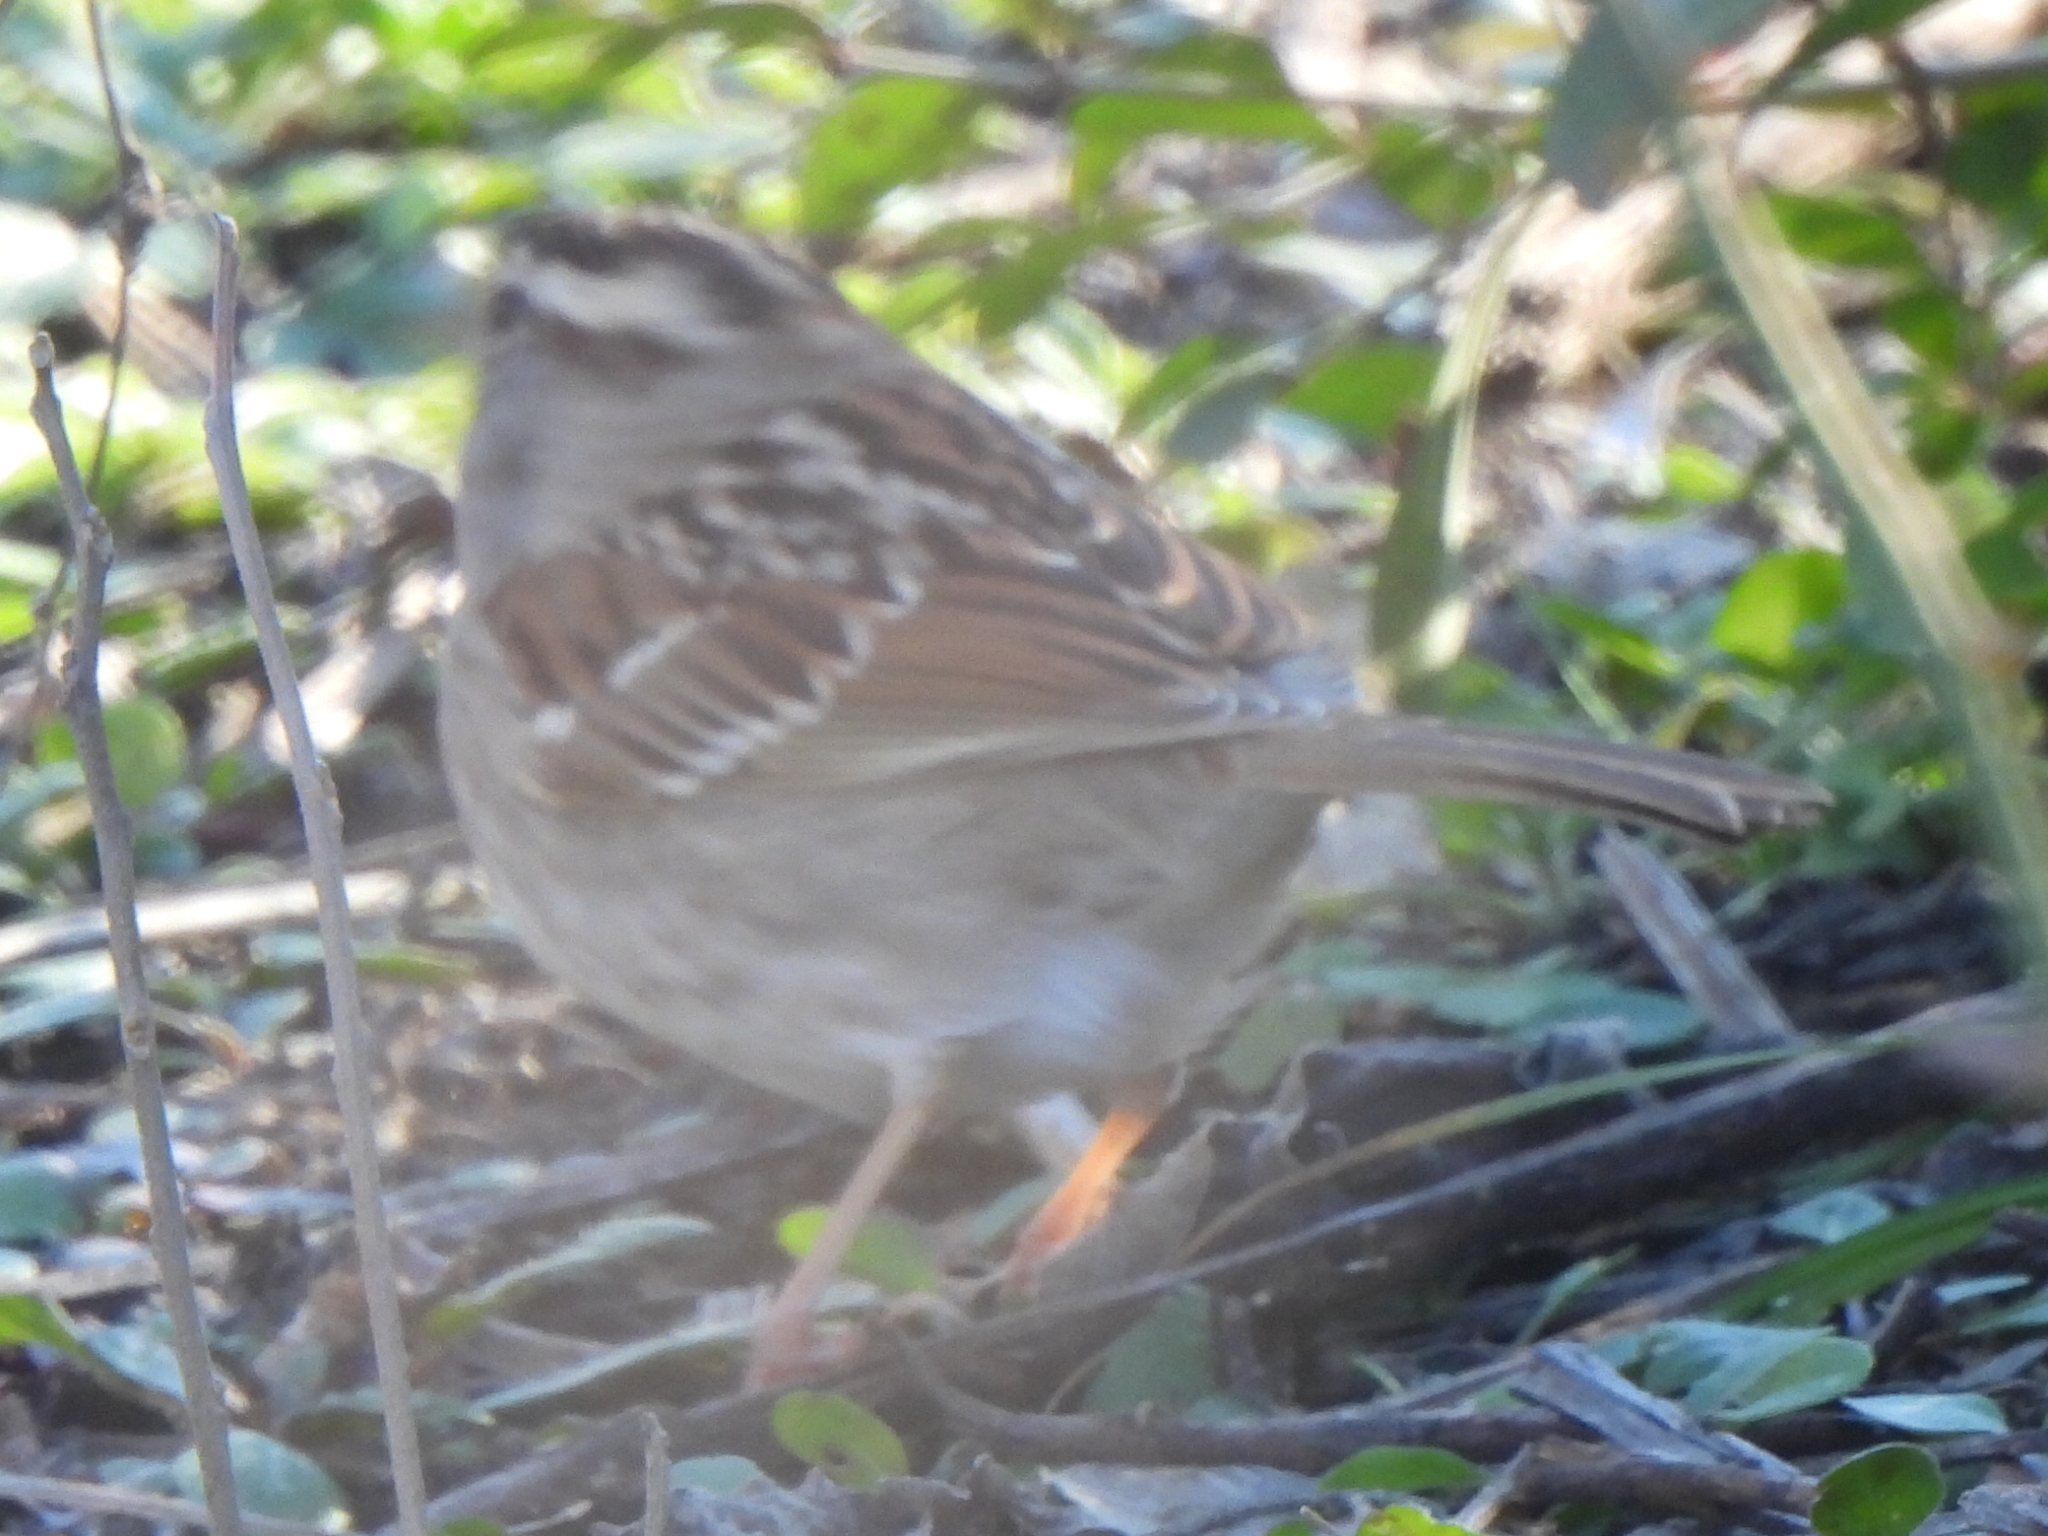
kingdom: Animalia
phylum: Chordata
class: Aves
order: Passeriformes
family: Passerellidae
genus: Zonotrichia
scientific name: Zonotrichia albicollis
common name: White-throated sparrow
